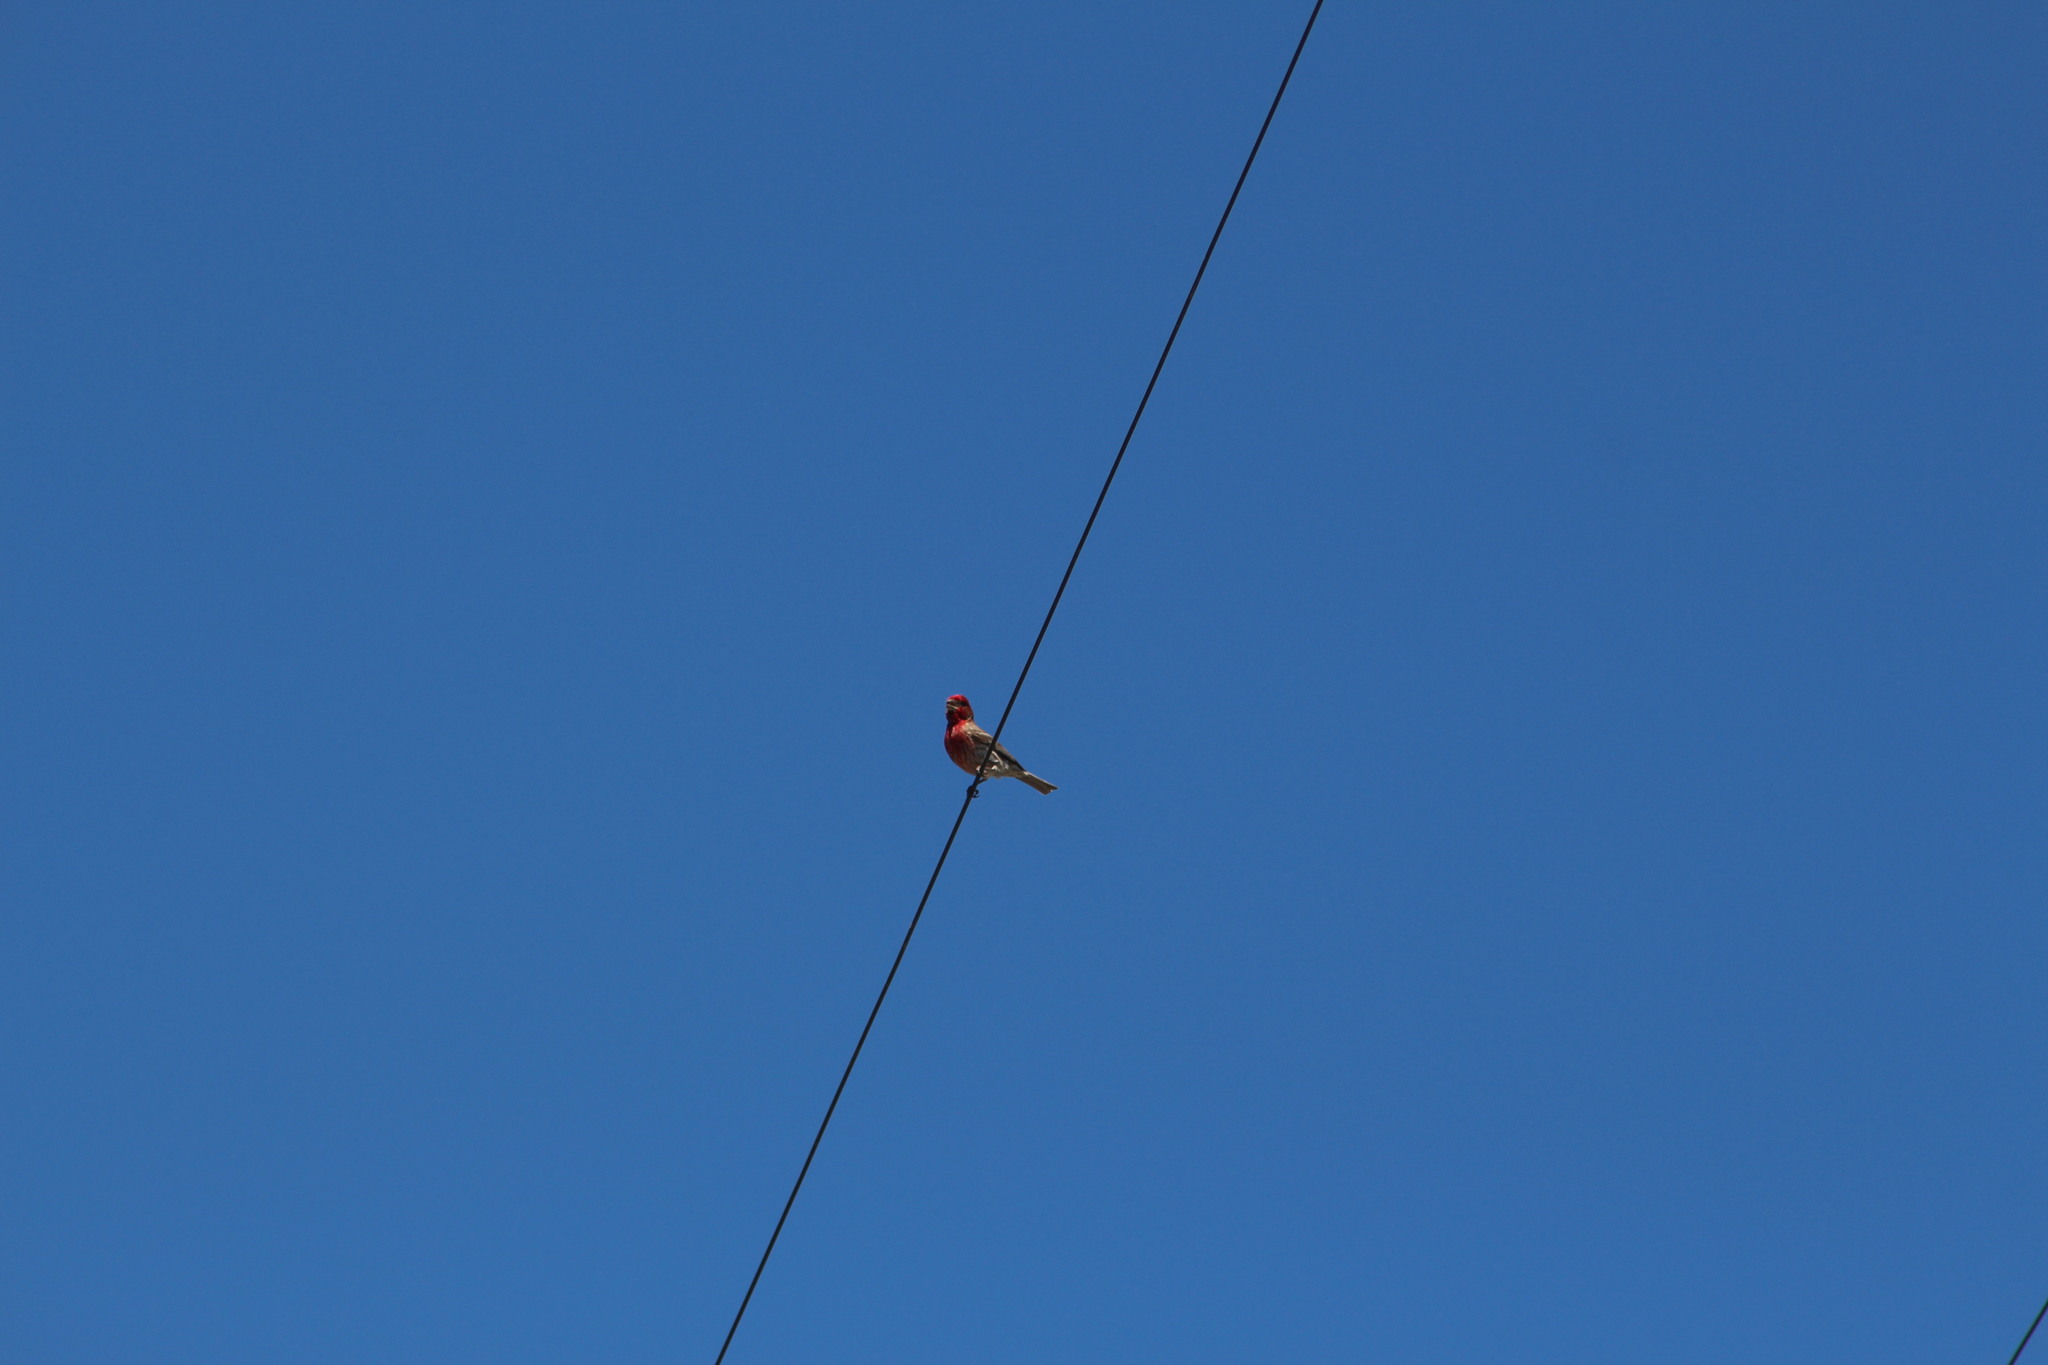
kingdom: Animalia
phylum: Chordata
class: Aves
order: Passeriformes
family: Fringillidae
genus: Haemorhous
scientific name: Haemorhous mexicanus
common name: House finch
